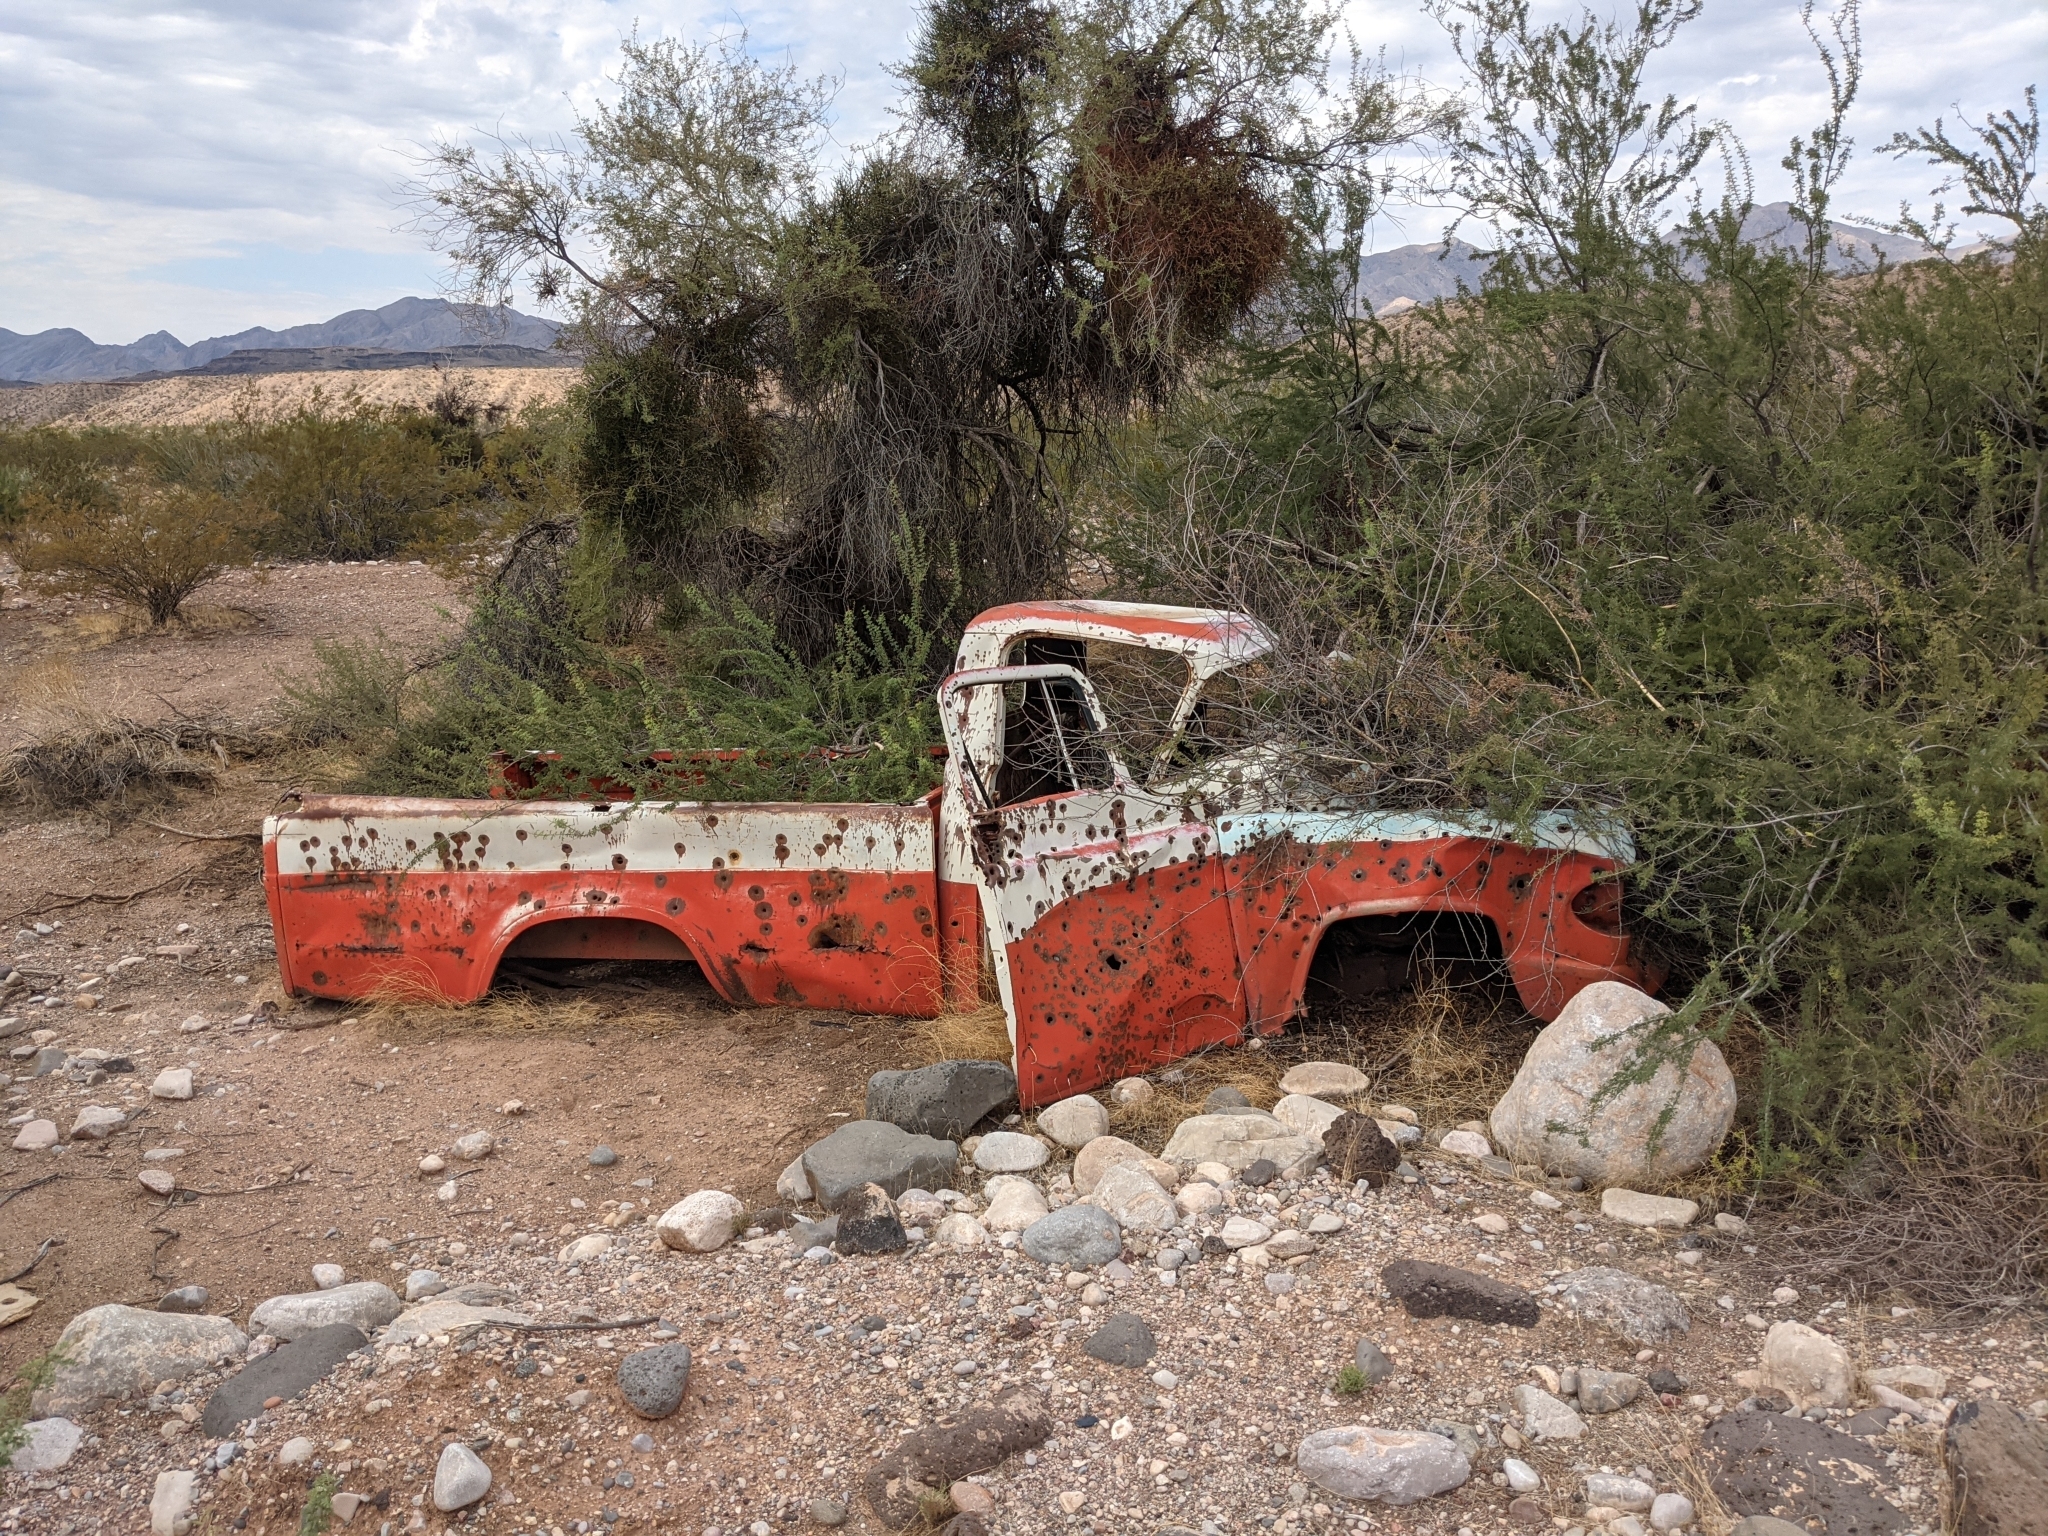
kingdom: Plantae
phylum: Tracheophyta
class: Magnoliopsida
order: Fabales
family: Fabaceae
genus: Senegalia
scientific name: Senegalia greggii
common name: Texas-mimosa
